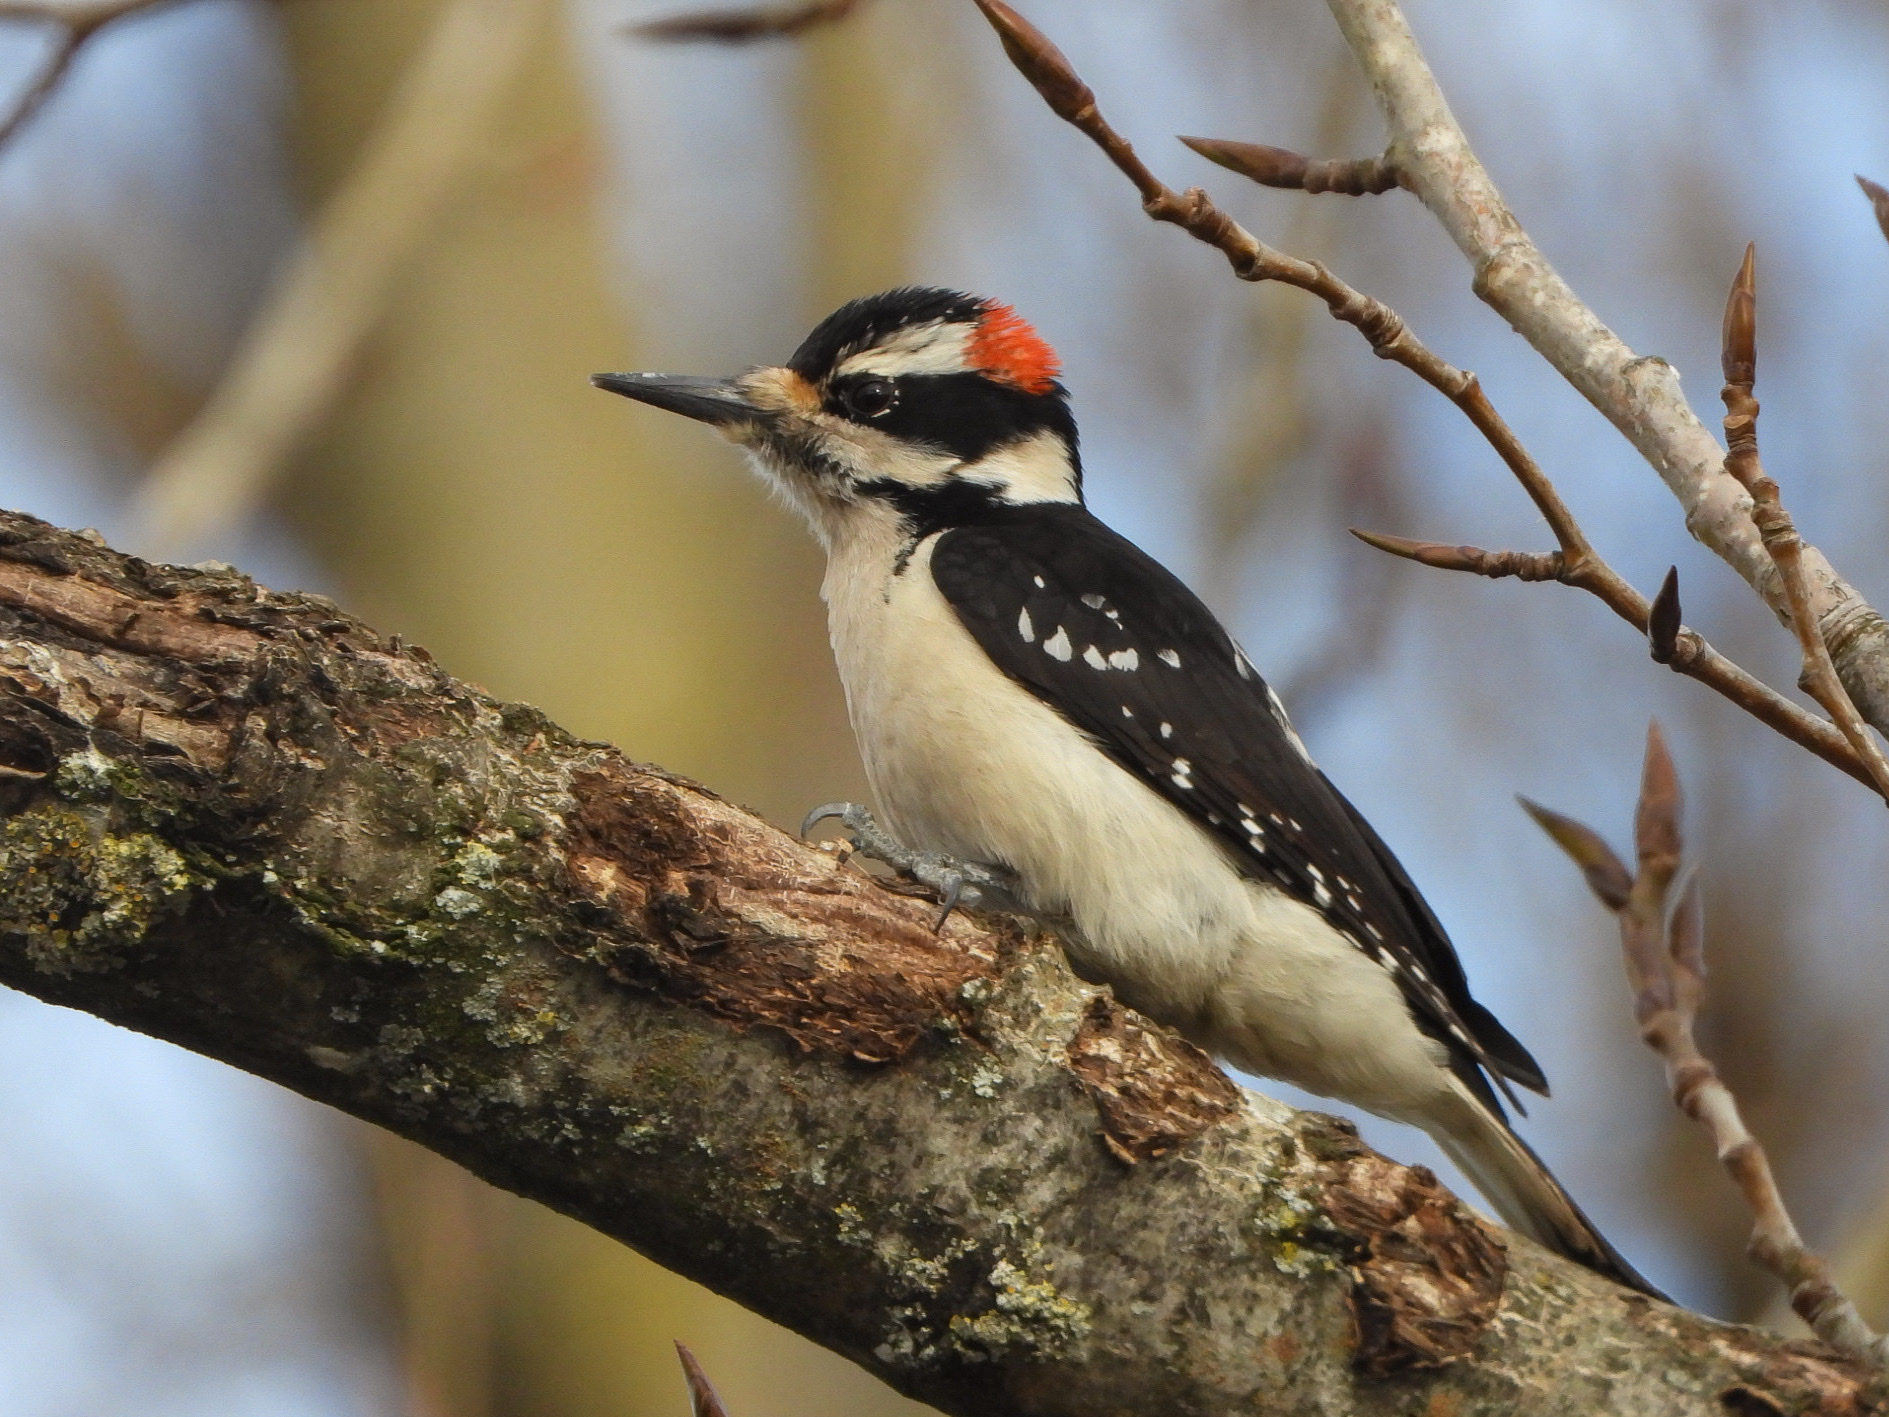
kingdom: Animalia
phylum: Chordata
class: Aves
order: Piciformes
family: Picidae
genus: Leuconotopicus
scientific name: Leuconotopicus villosus
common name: Hairy woodpecker
